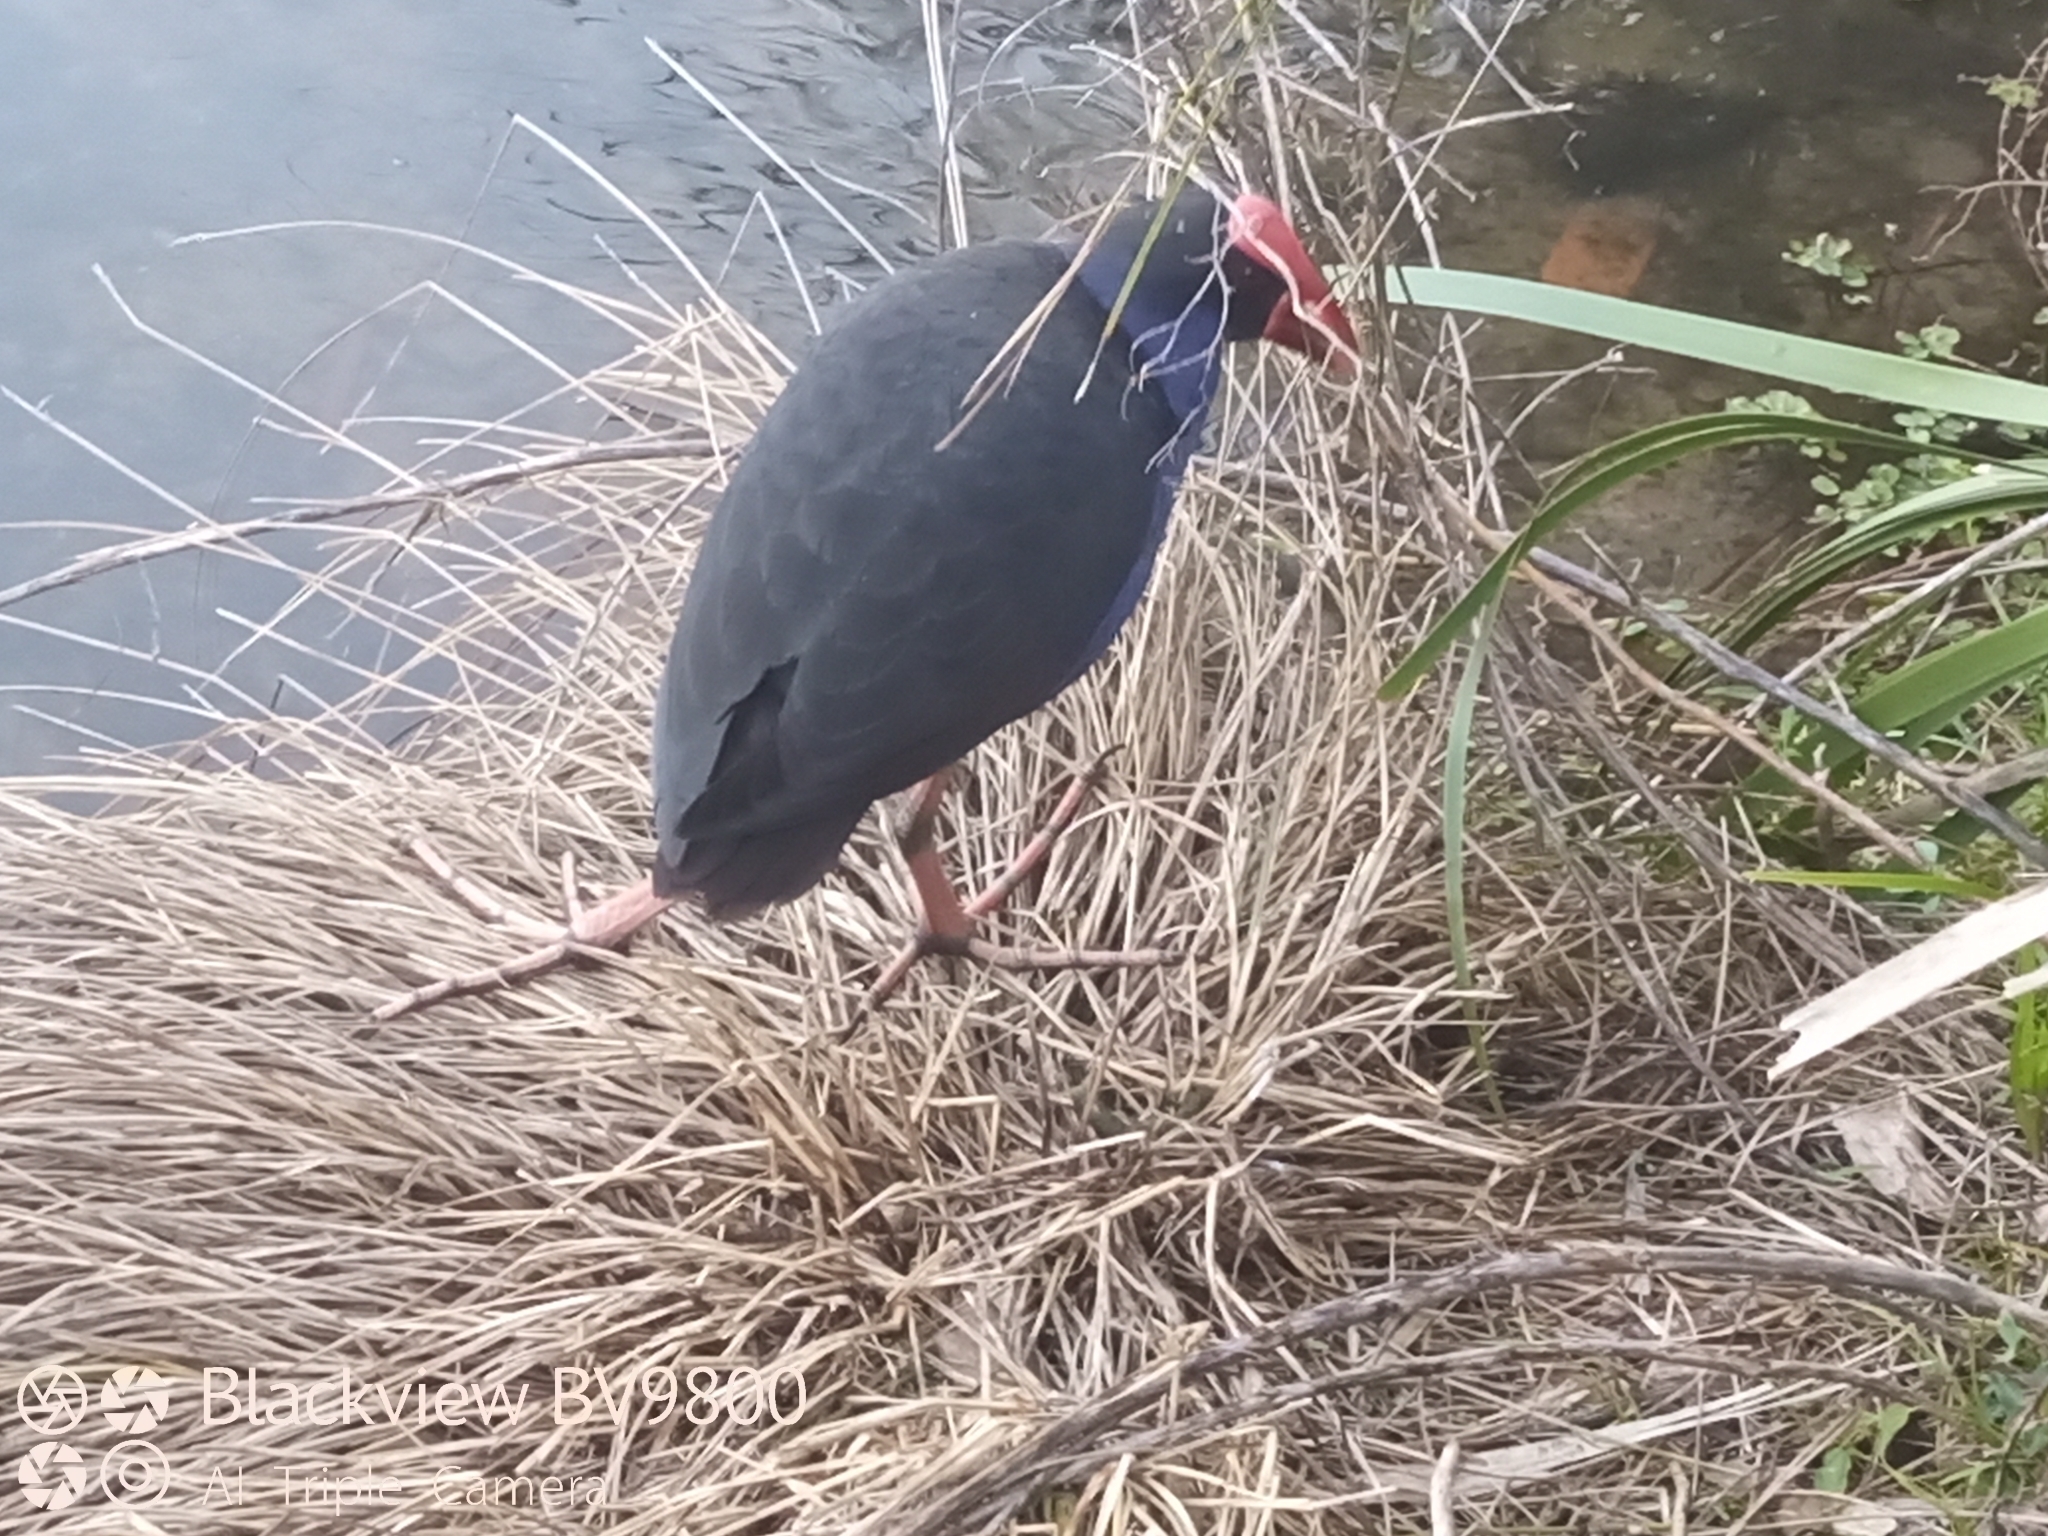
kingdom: Animalia
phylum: Chordata
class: Aves
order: Gruiformes
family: Rallidae
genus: Porphyrio
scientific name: Porphyrio melanotus
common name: Australasian swamphen
